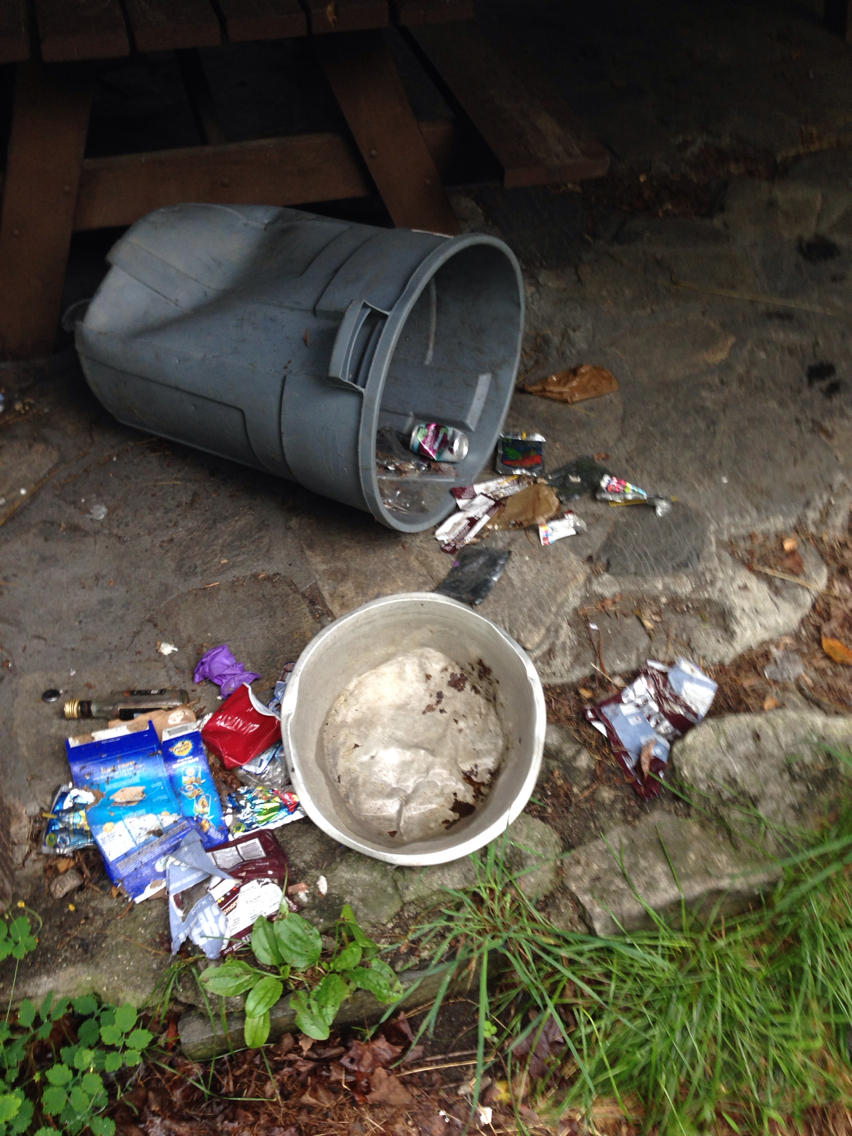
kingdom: Animalia
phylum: Chordata
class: Mammalia
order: Carnivora
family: Ursidae
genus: Ursus
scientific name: Ursus americanus
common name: American black bear
